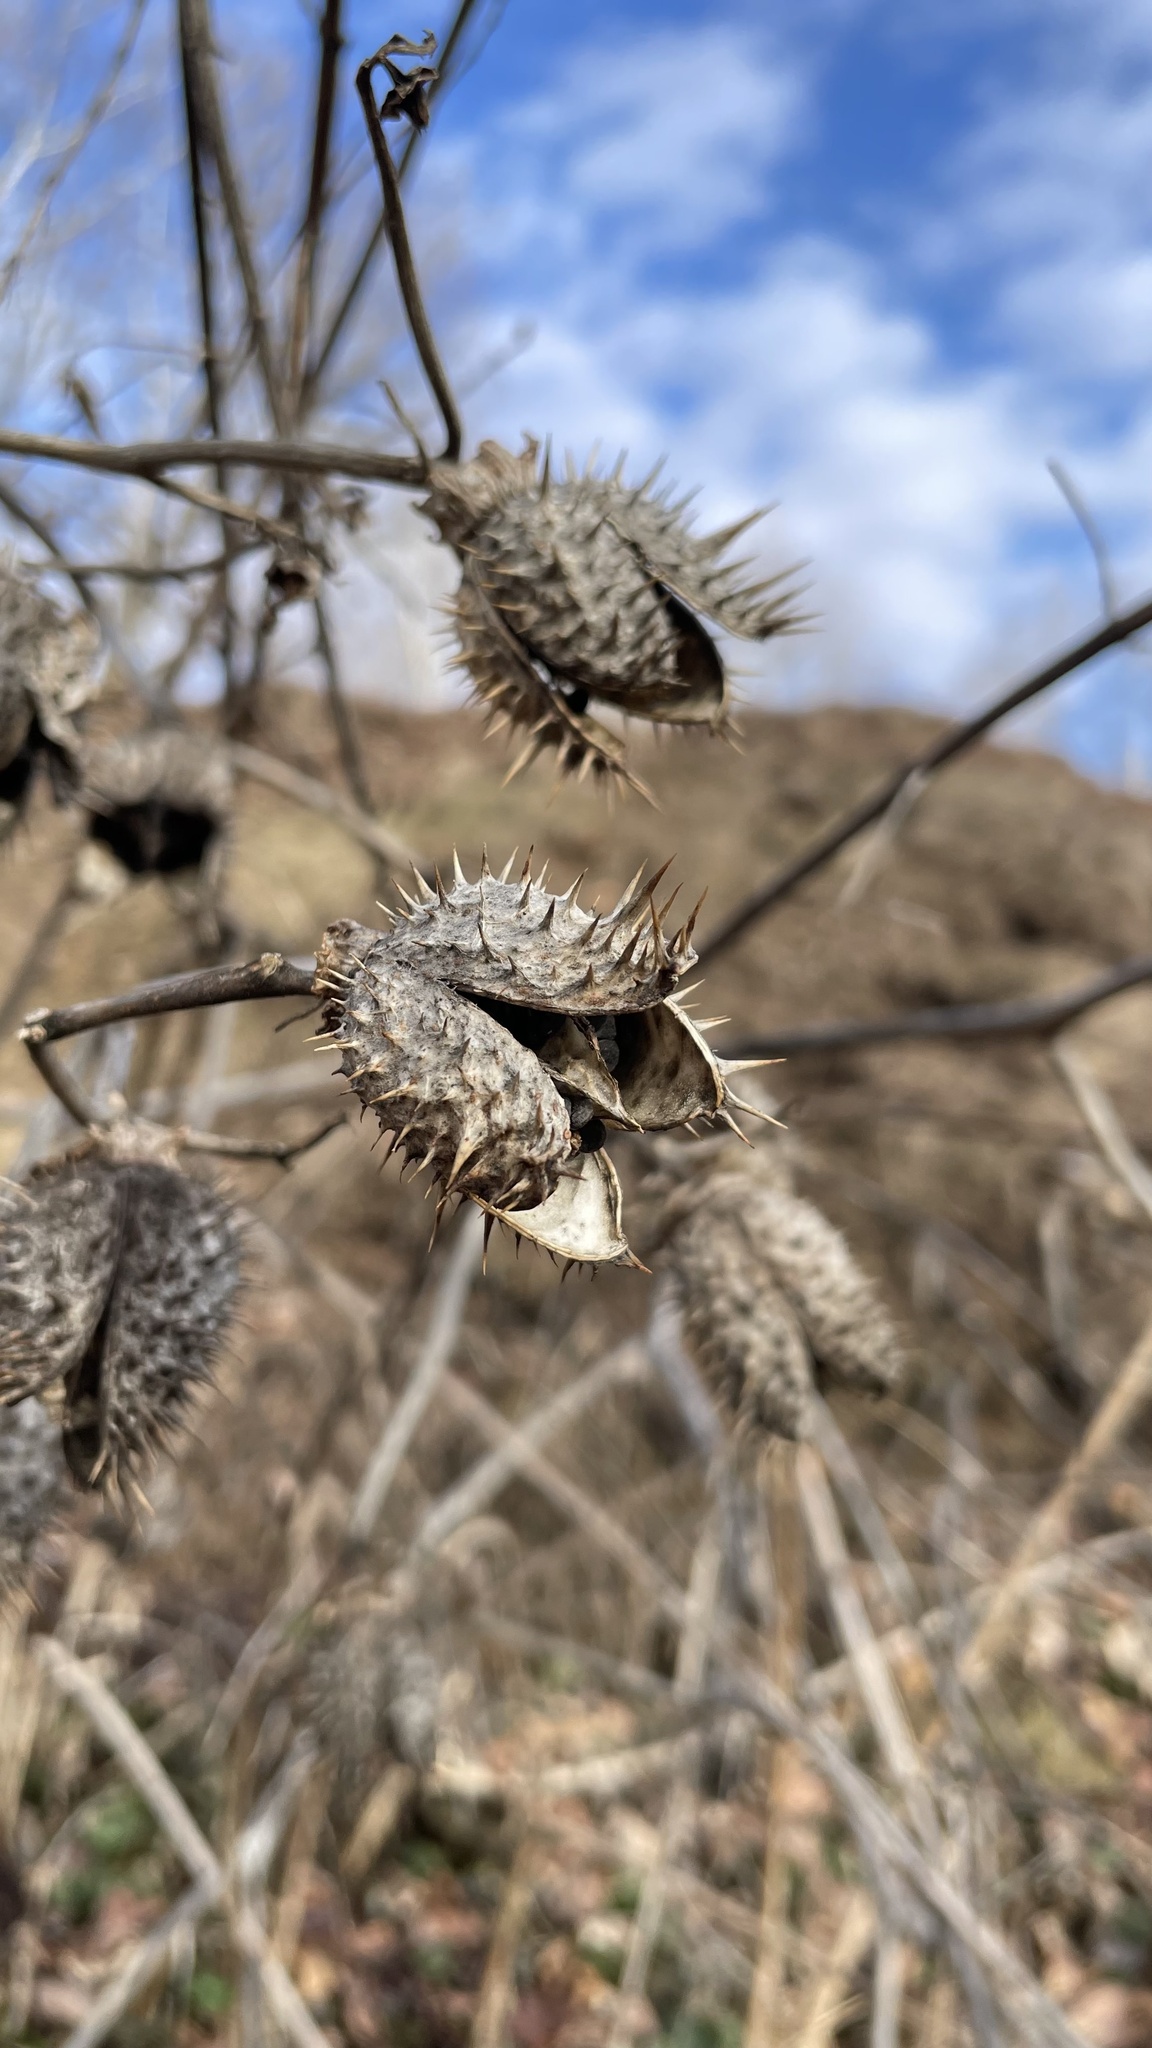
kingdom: Plantae
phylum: Tracheophyta
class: Magnoliopsida
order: Solanales
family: Solanaceae
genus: Datura
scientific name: Datura stramonium
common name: Thorn-apple
